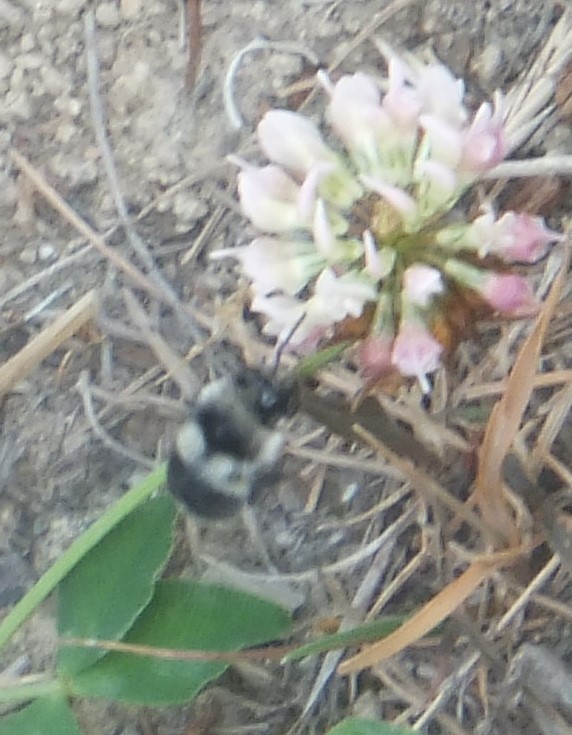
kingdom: Animalia
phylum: Arthropoda
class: Insecta
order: Hymenoptera
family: Apidae
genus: Bombus
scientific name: Bombus vancouverensis
